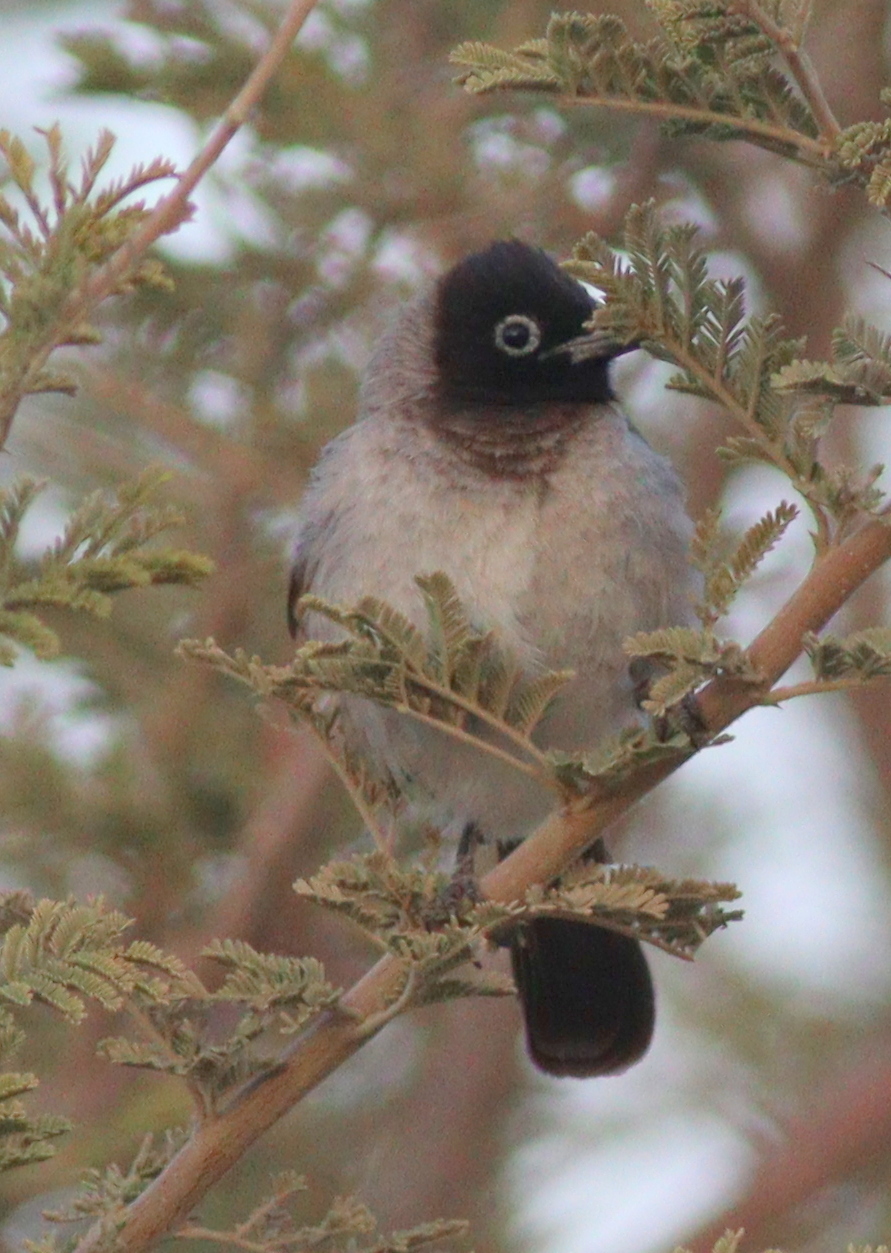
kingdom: Animalia
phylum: Chordata
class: Aves
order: Passeriformes
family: Pycnonotidae
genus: Pycnonotus
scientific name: Pycnonotus xanthopygos
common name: White-spectacled bulbul
